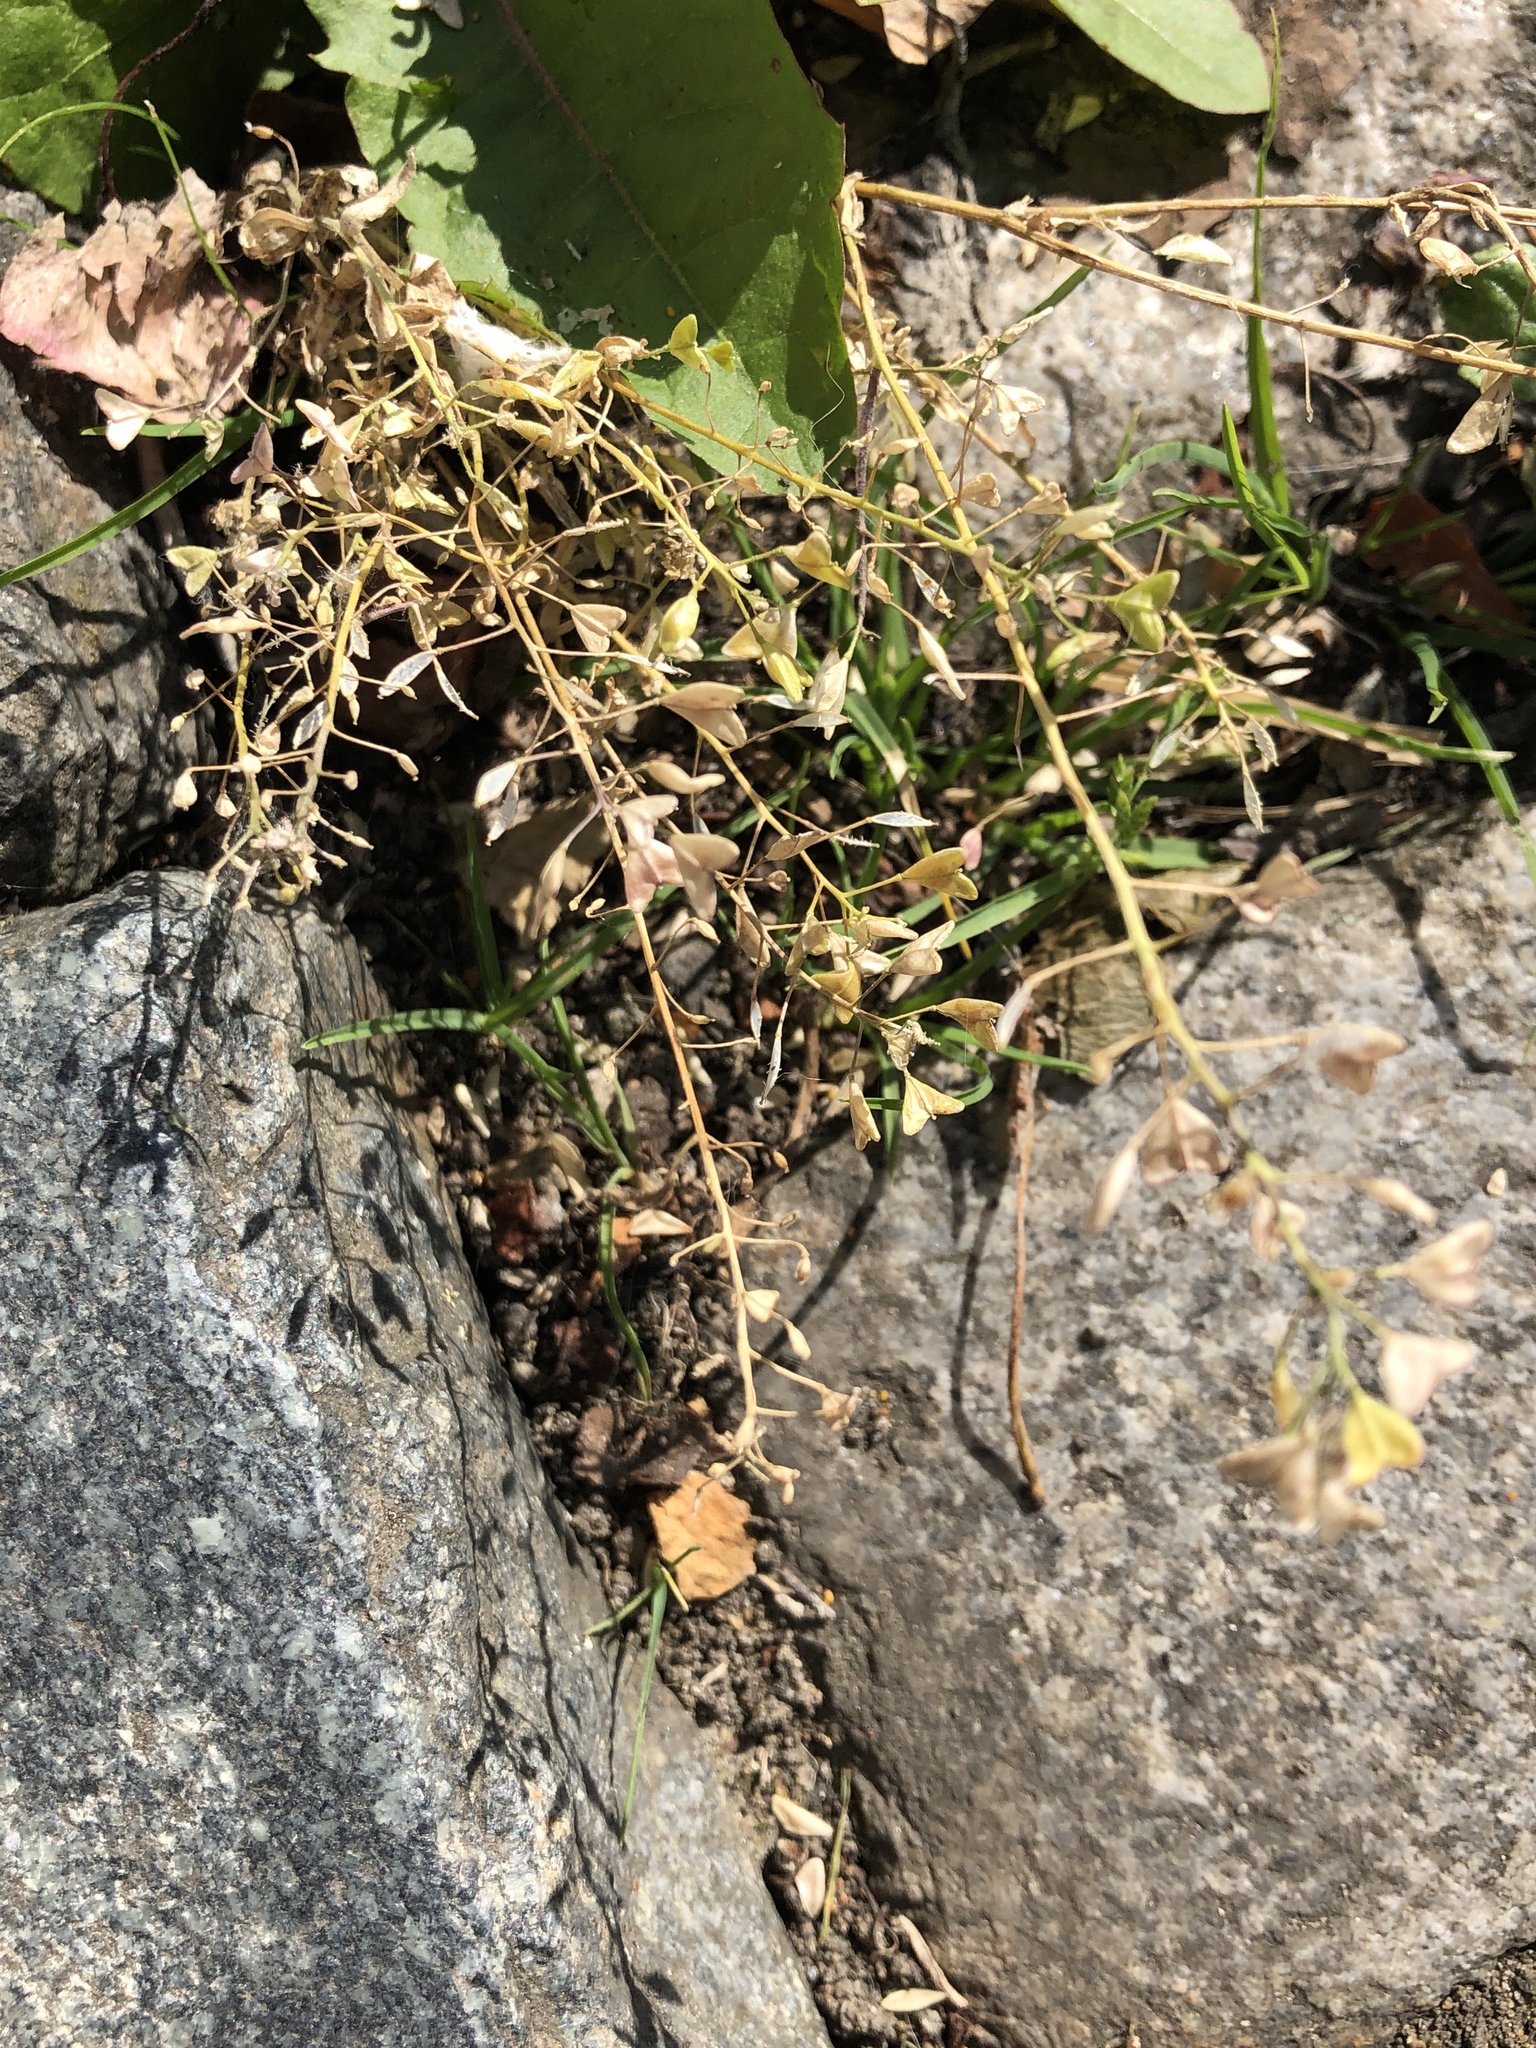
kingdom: Plantae
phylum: Tracheophyta
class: Magnoliopsida
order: Brassicales
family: Brassicaceae
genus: Capsella
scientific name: Capsella bursa-pastoris
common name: Shepherd's purse
